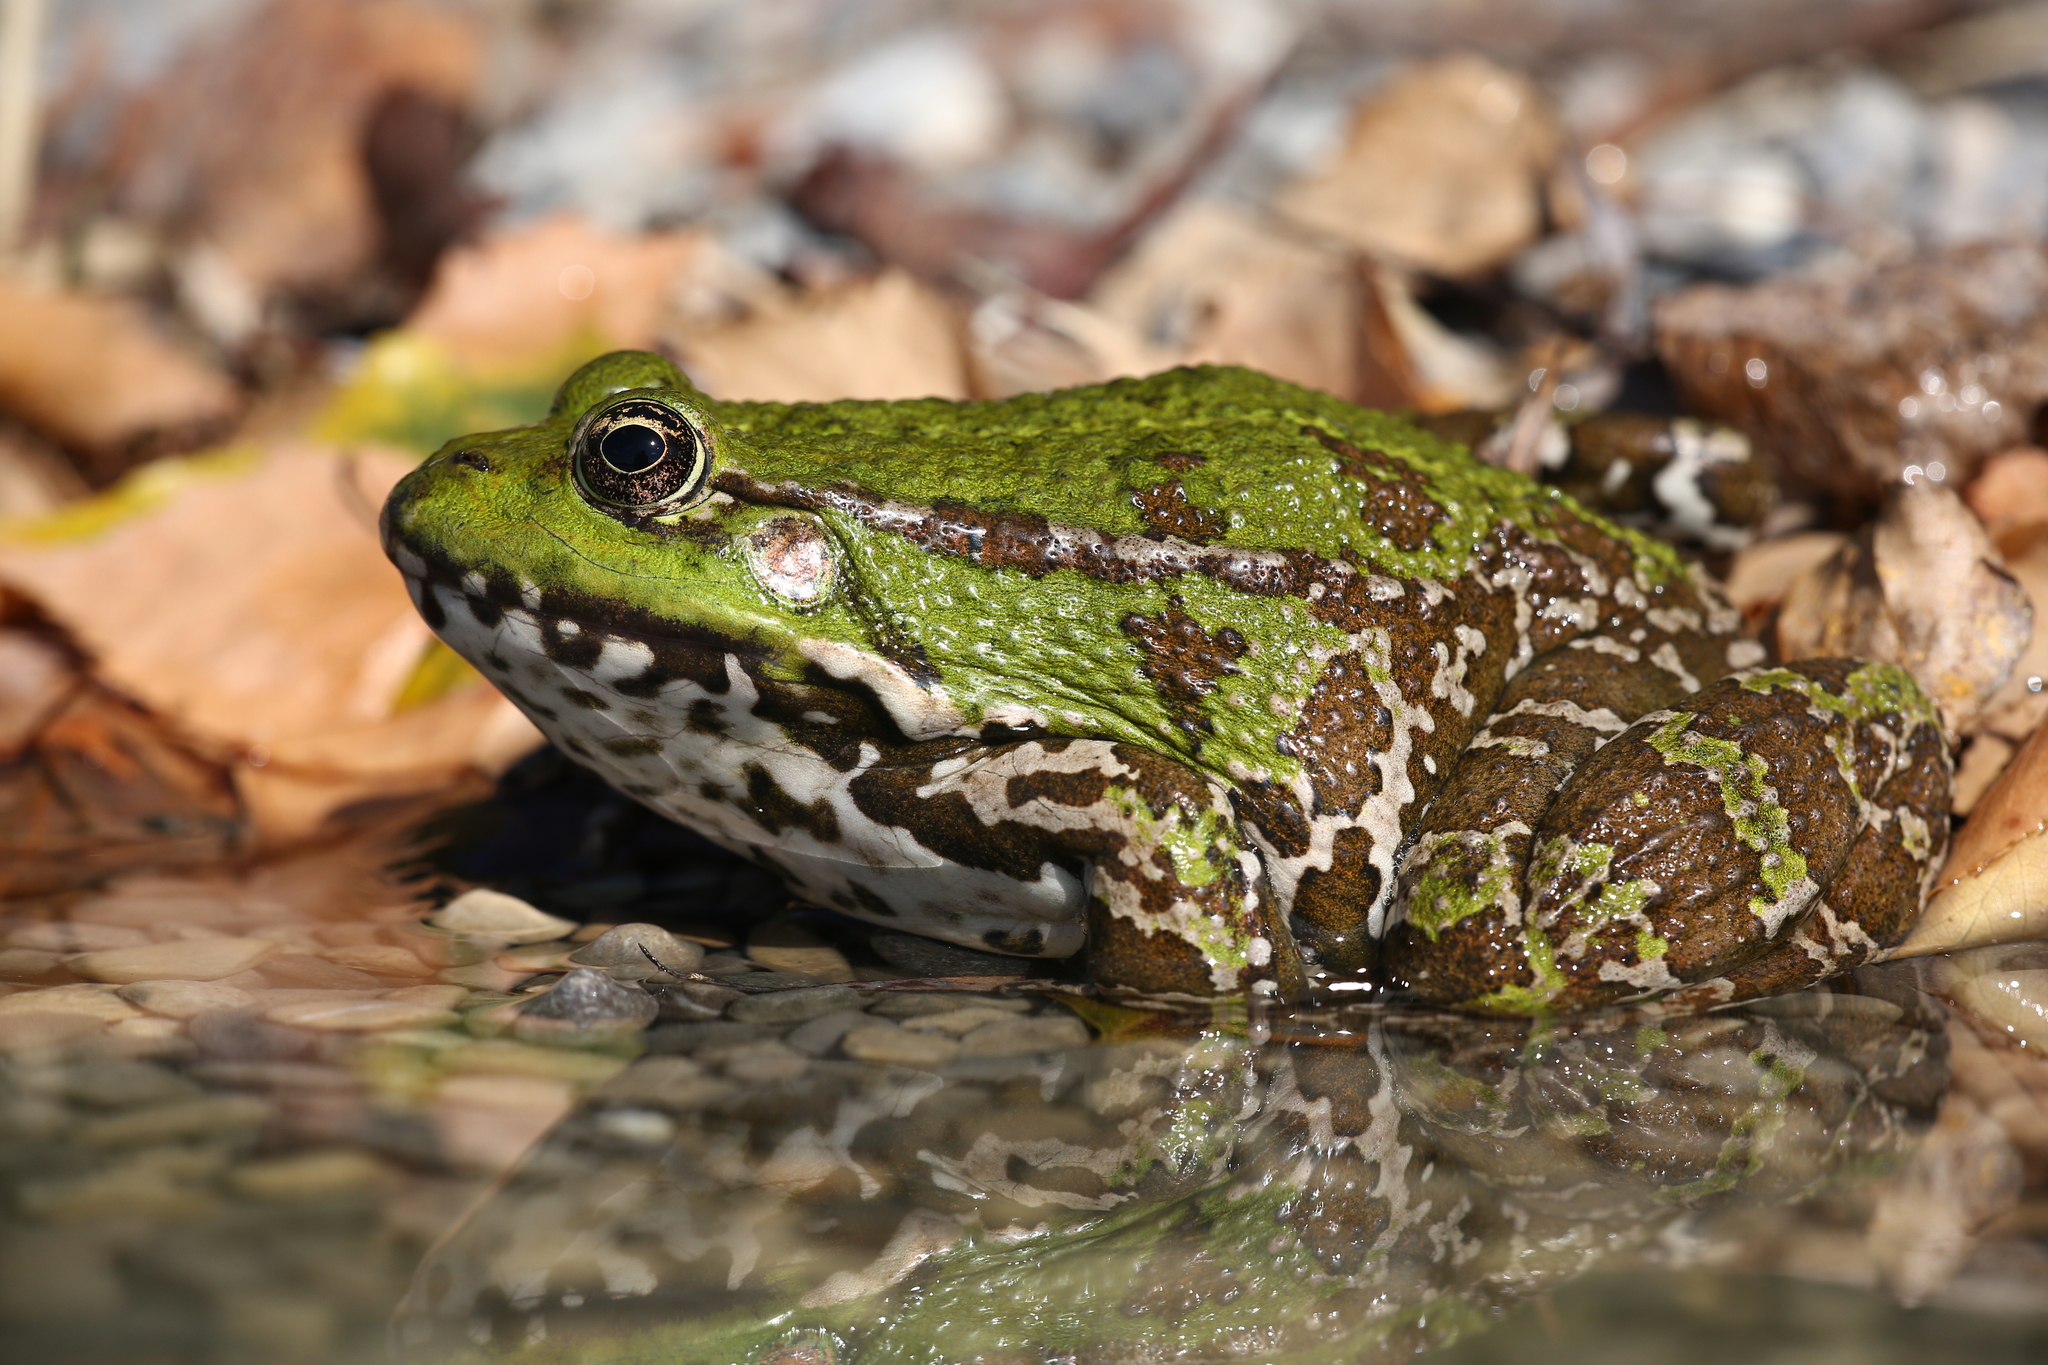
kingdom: Animalia
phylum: Chordata
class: Amphibia
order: Anura
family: Ranidae
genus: Pelophylax
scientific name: Pelophylax ridibundus
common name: Marsh frog
